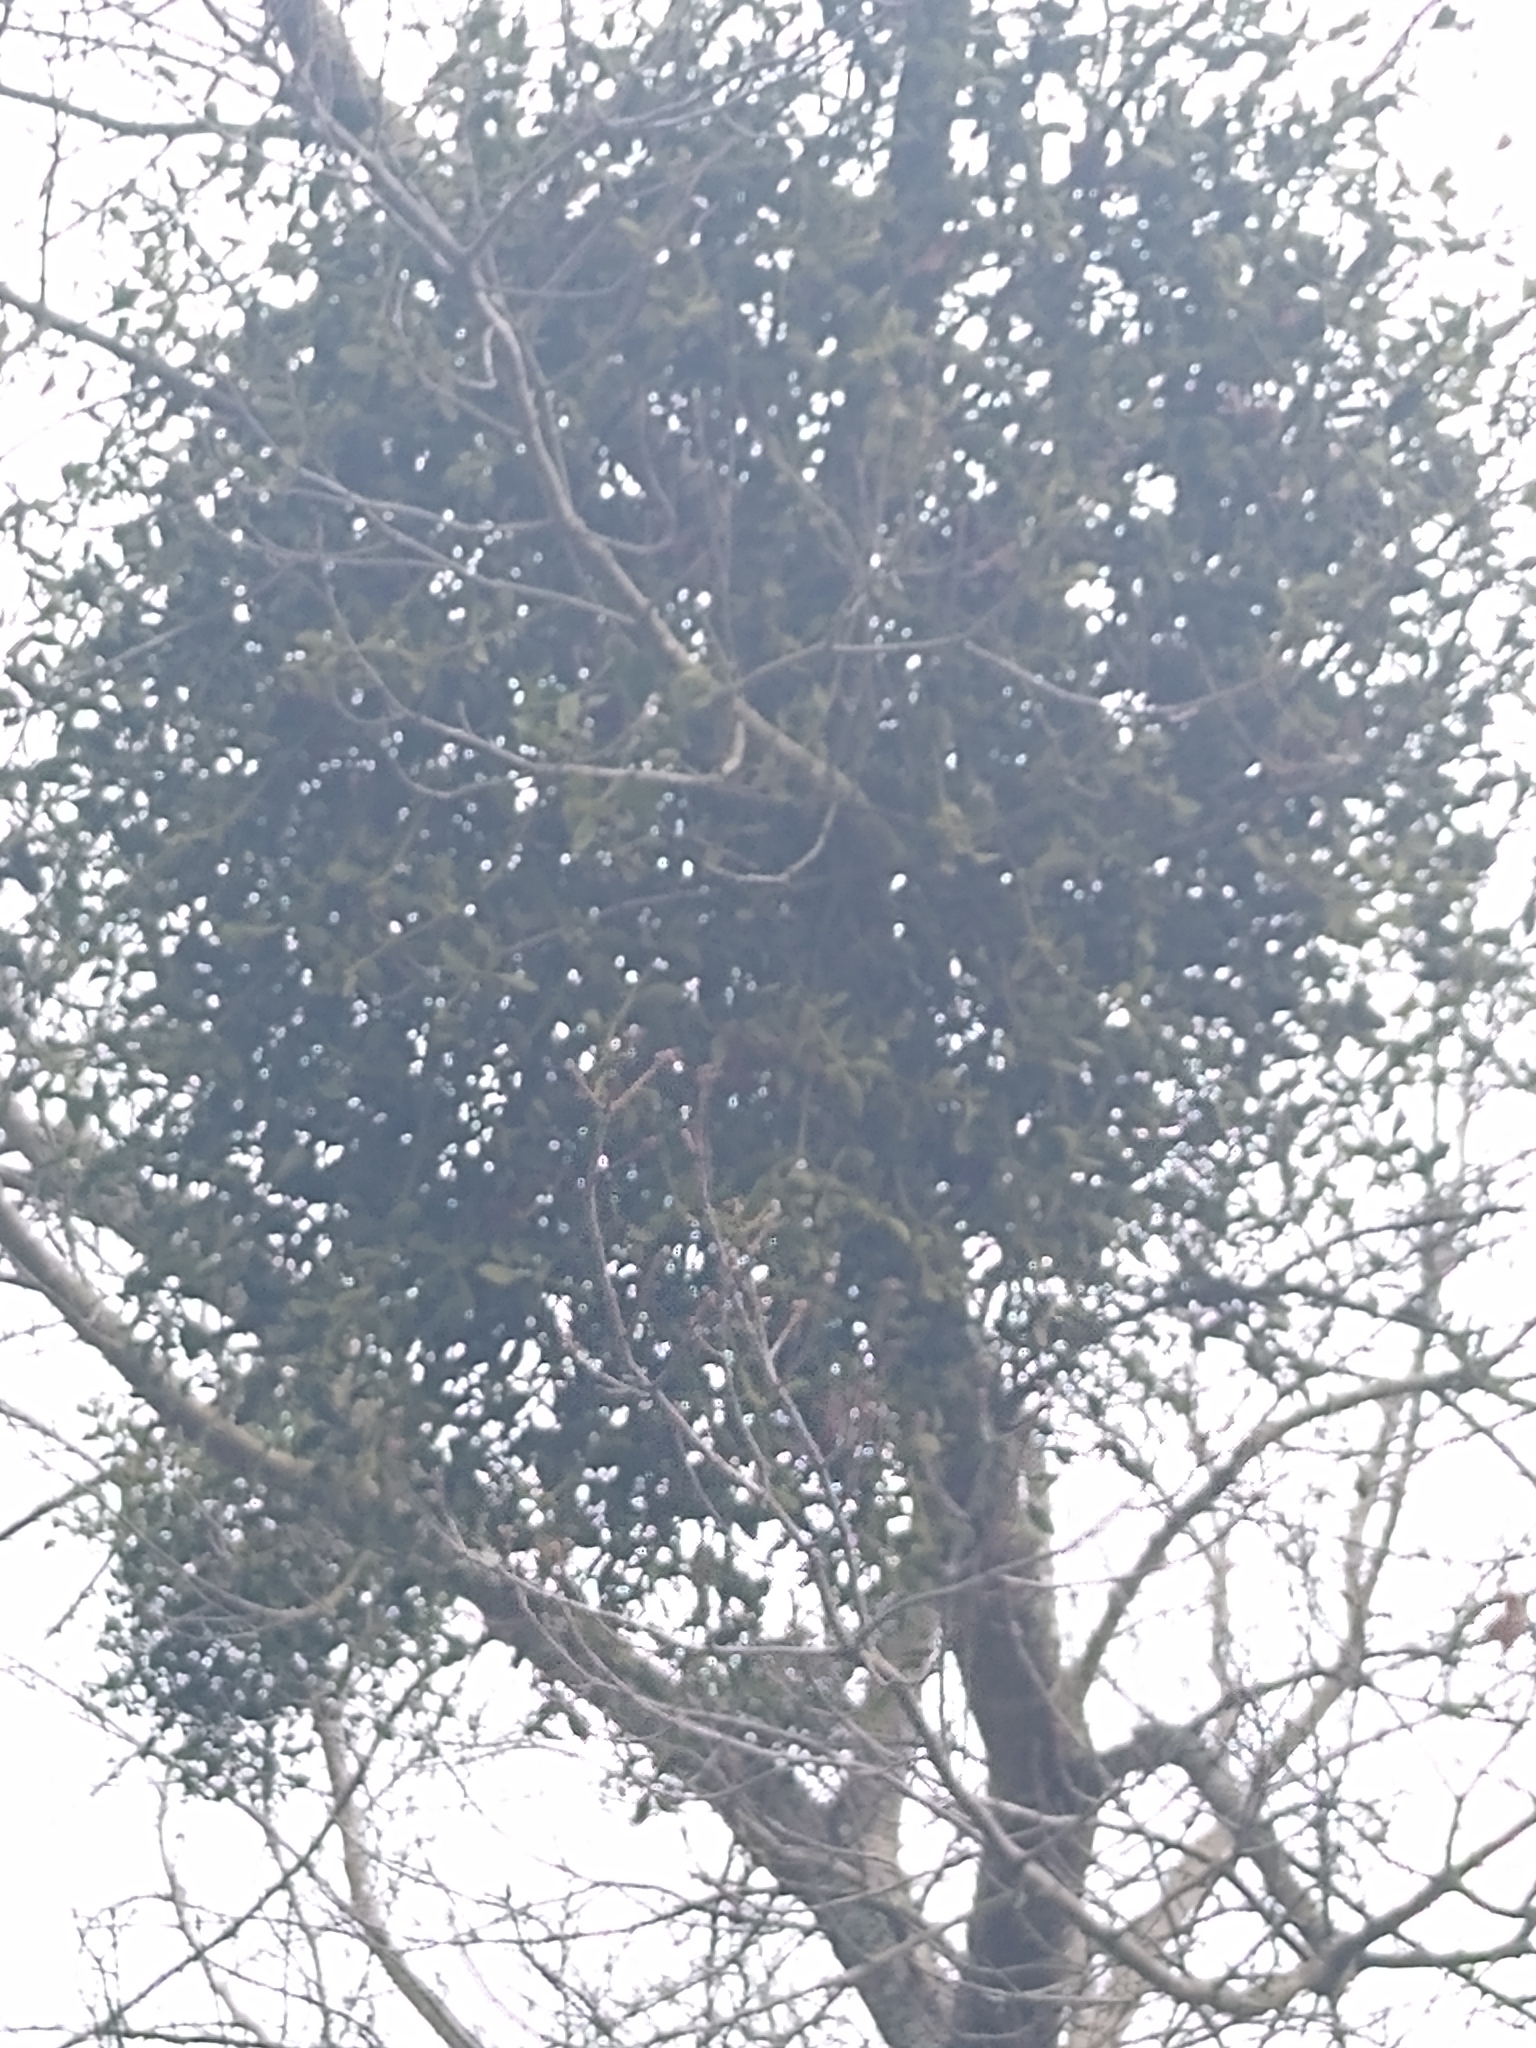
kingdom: Plantae
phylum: Tracheophyta
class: Magnoliopsida
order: Santalales
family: Viscaceae
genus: Phoradendron
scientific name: Phoradendron leucarpum
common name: Pacific mistletoe
